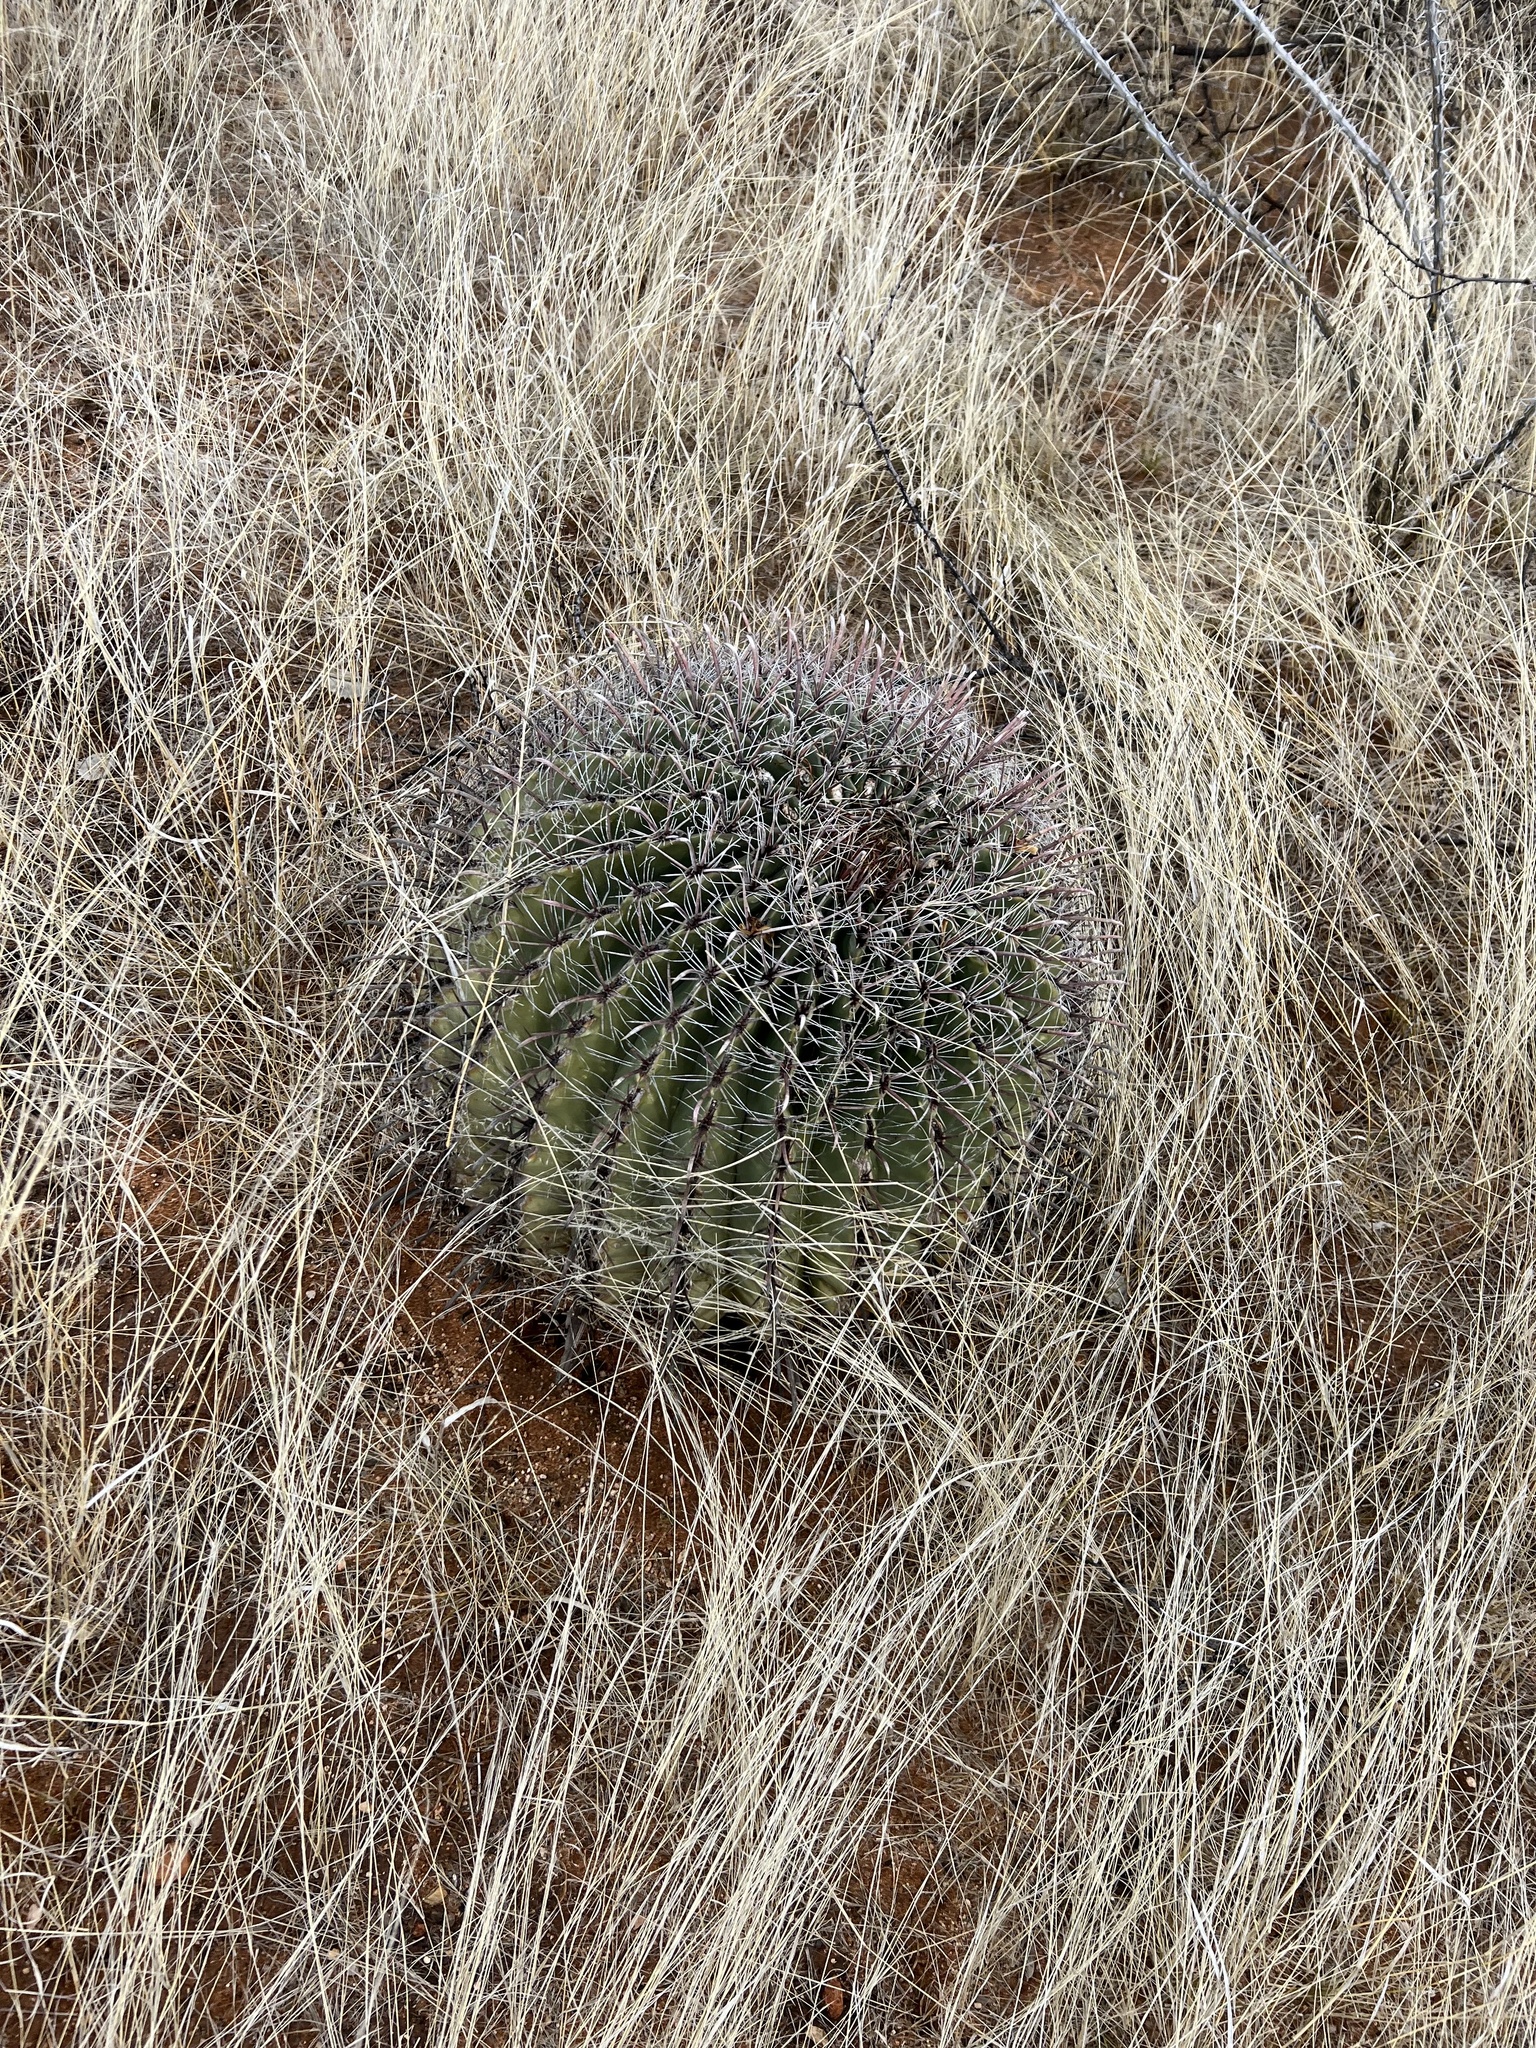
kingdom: Plantae
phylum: Tracheophyta
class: Magnoliopsida
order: Caryophyllales
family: Cactaceae
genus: Ferocactus
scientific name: Ferocactus wislizeni
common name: Candy barrel cactus
